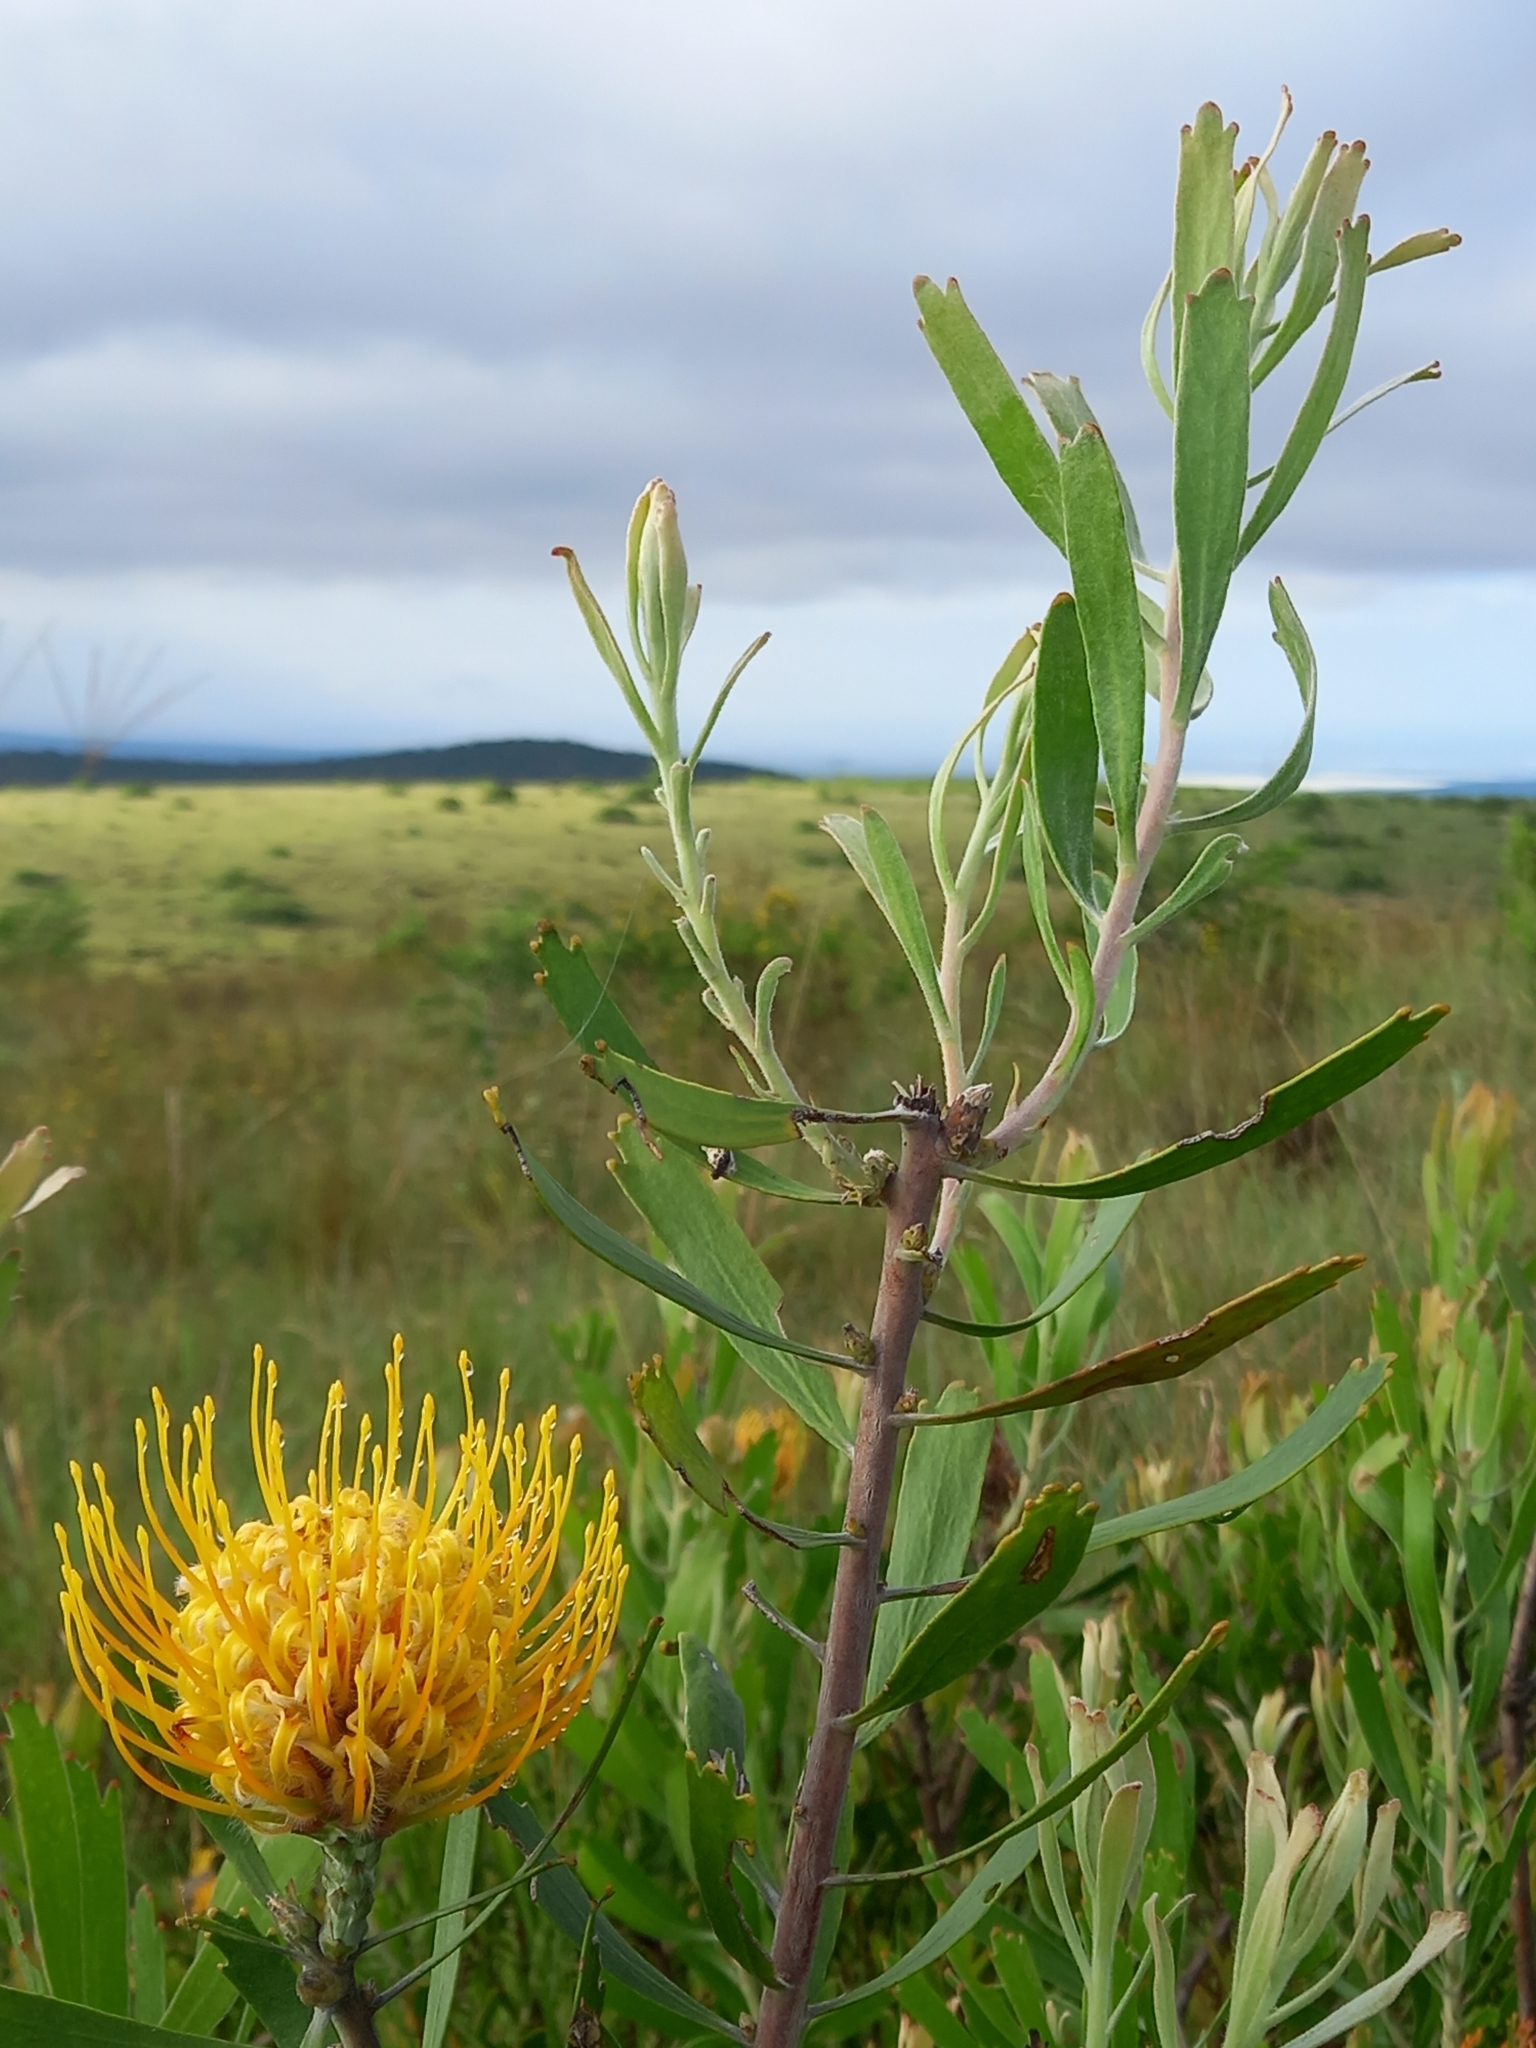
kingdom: Plantae
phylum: Tracheophyta
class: Magnoliopsida
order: Proteales
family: Proteaceae
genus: Leucospermum
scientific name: Leucospermum cuneiforme
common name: Common pincushion
